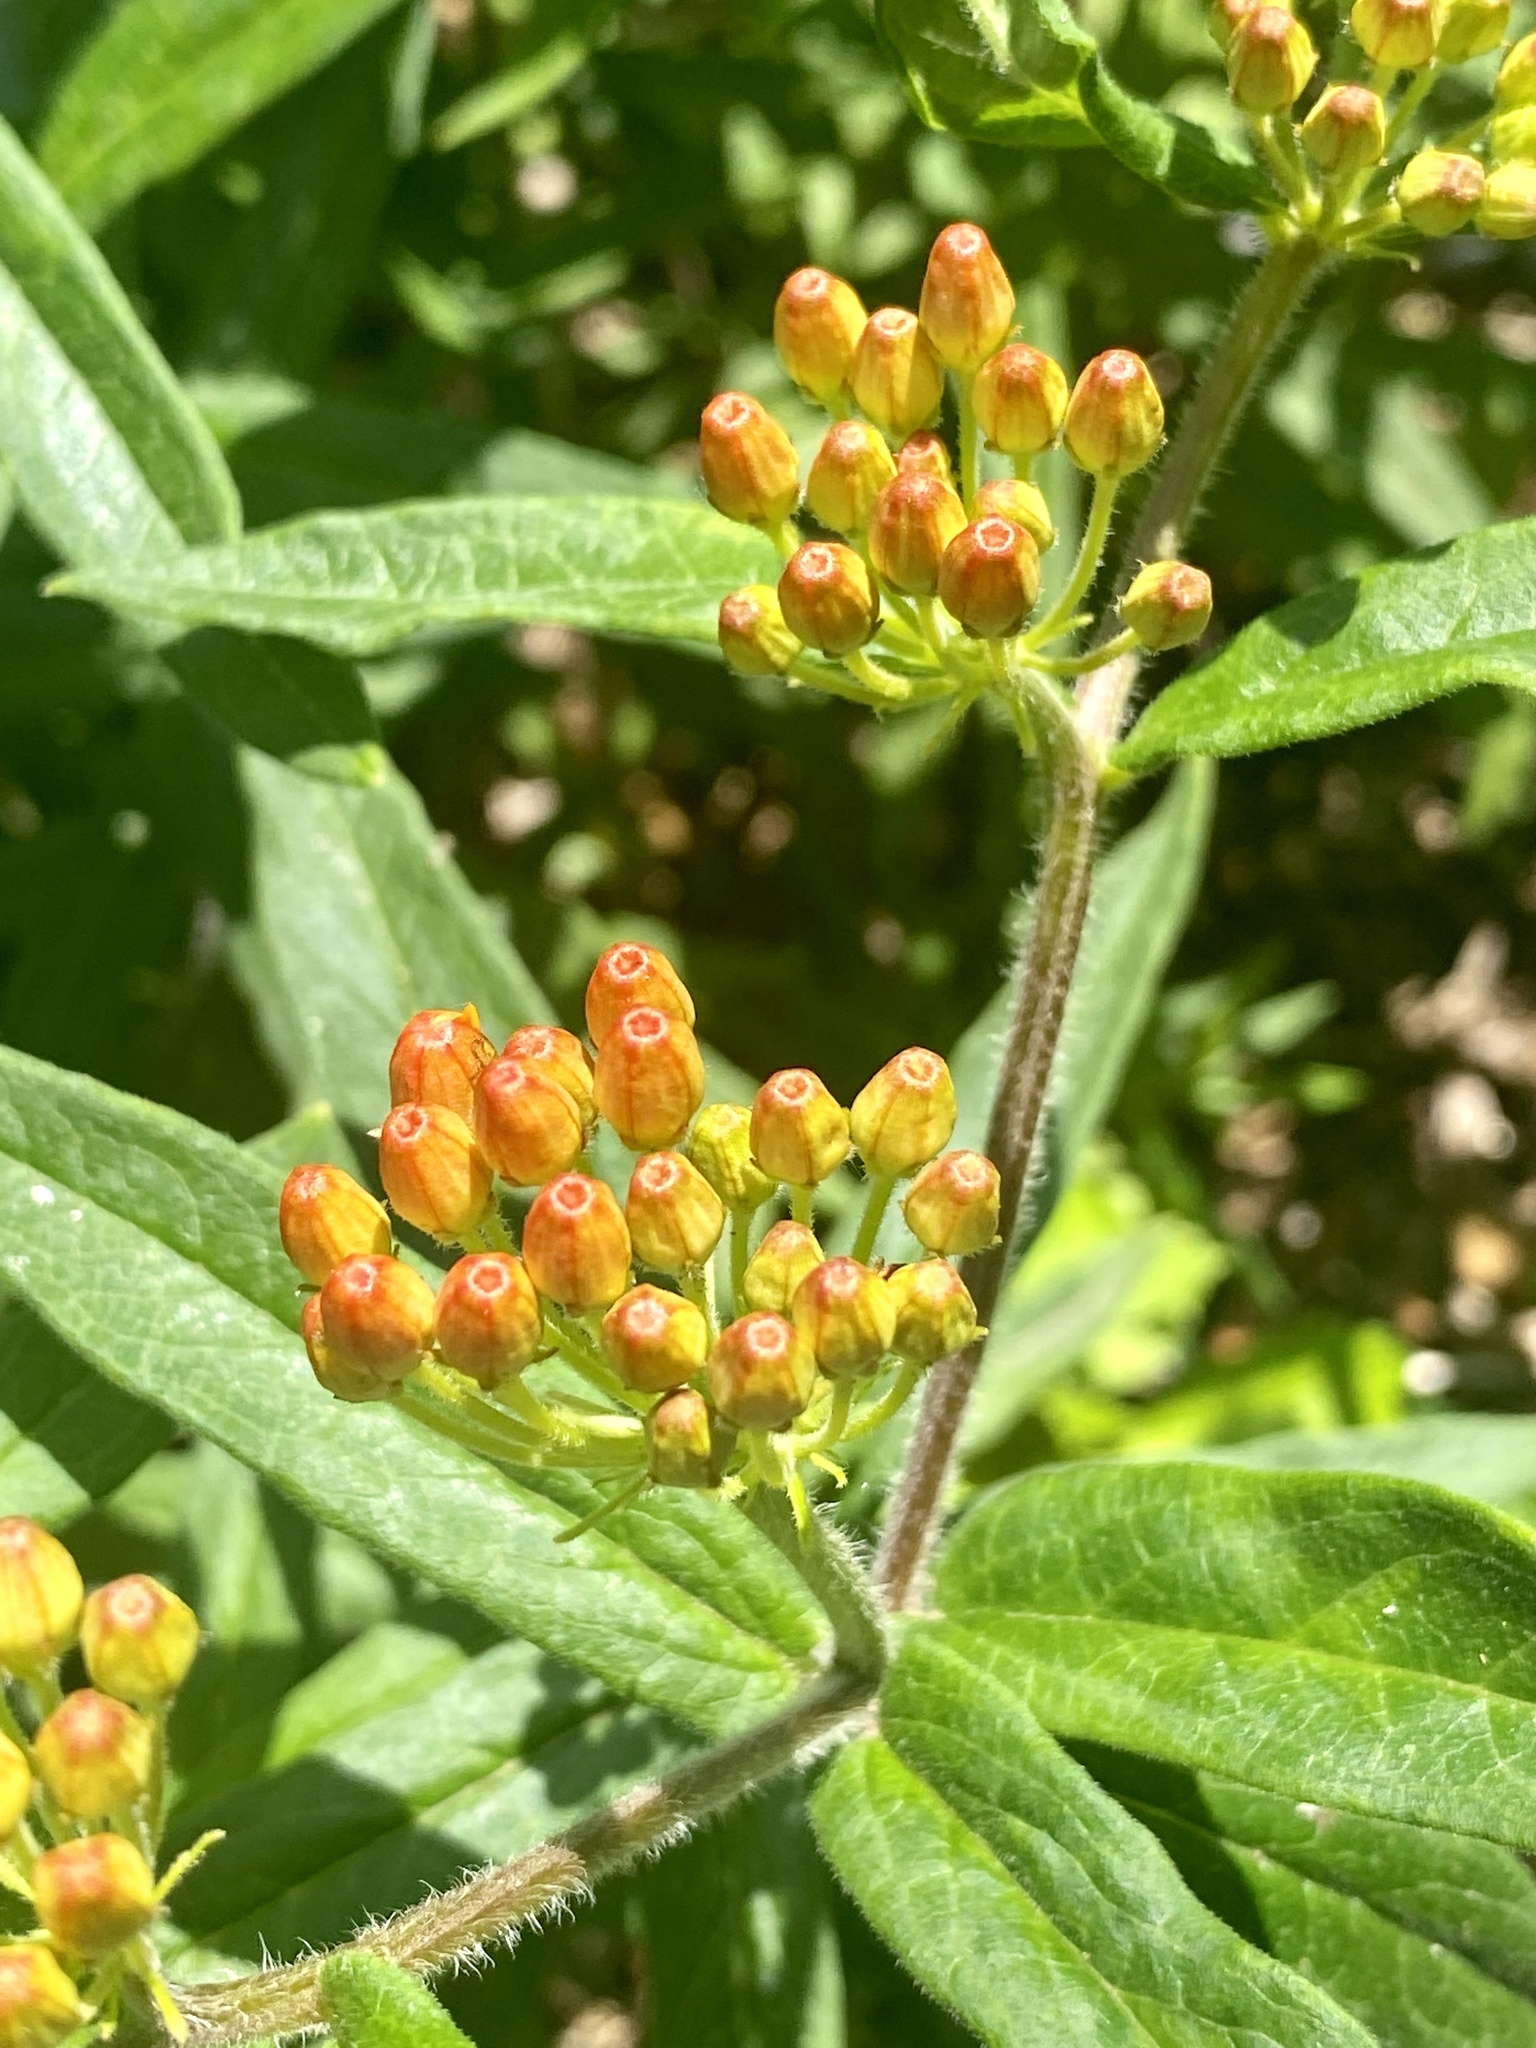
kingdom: Plantae
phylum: Tracheophyta
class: Magnoliopsida
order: Gentianales
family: Apocynaceae
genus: Asclepias
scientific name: Asclepias tuberosa
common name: Butterfly milkweed
